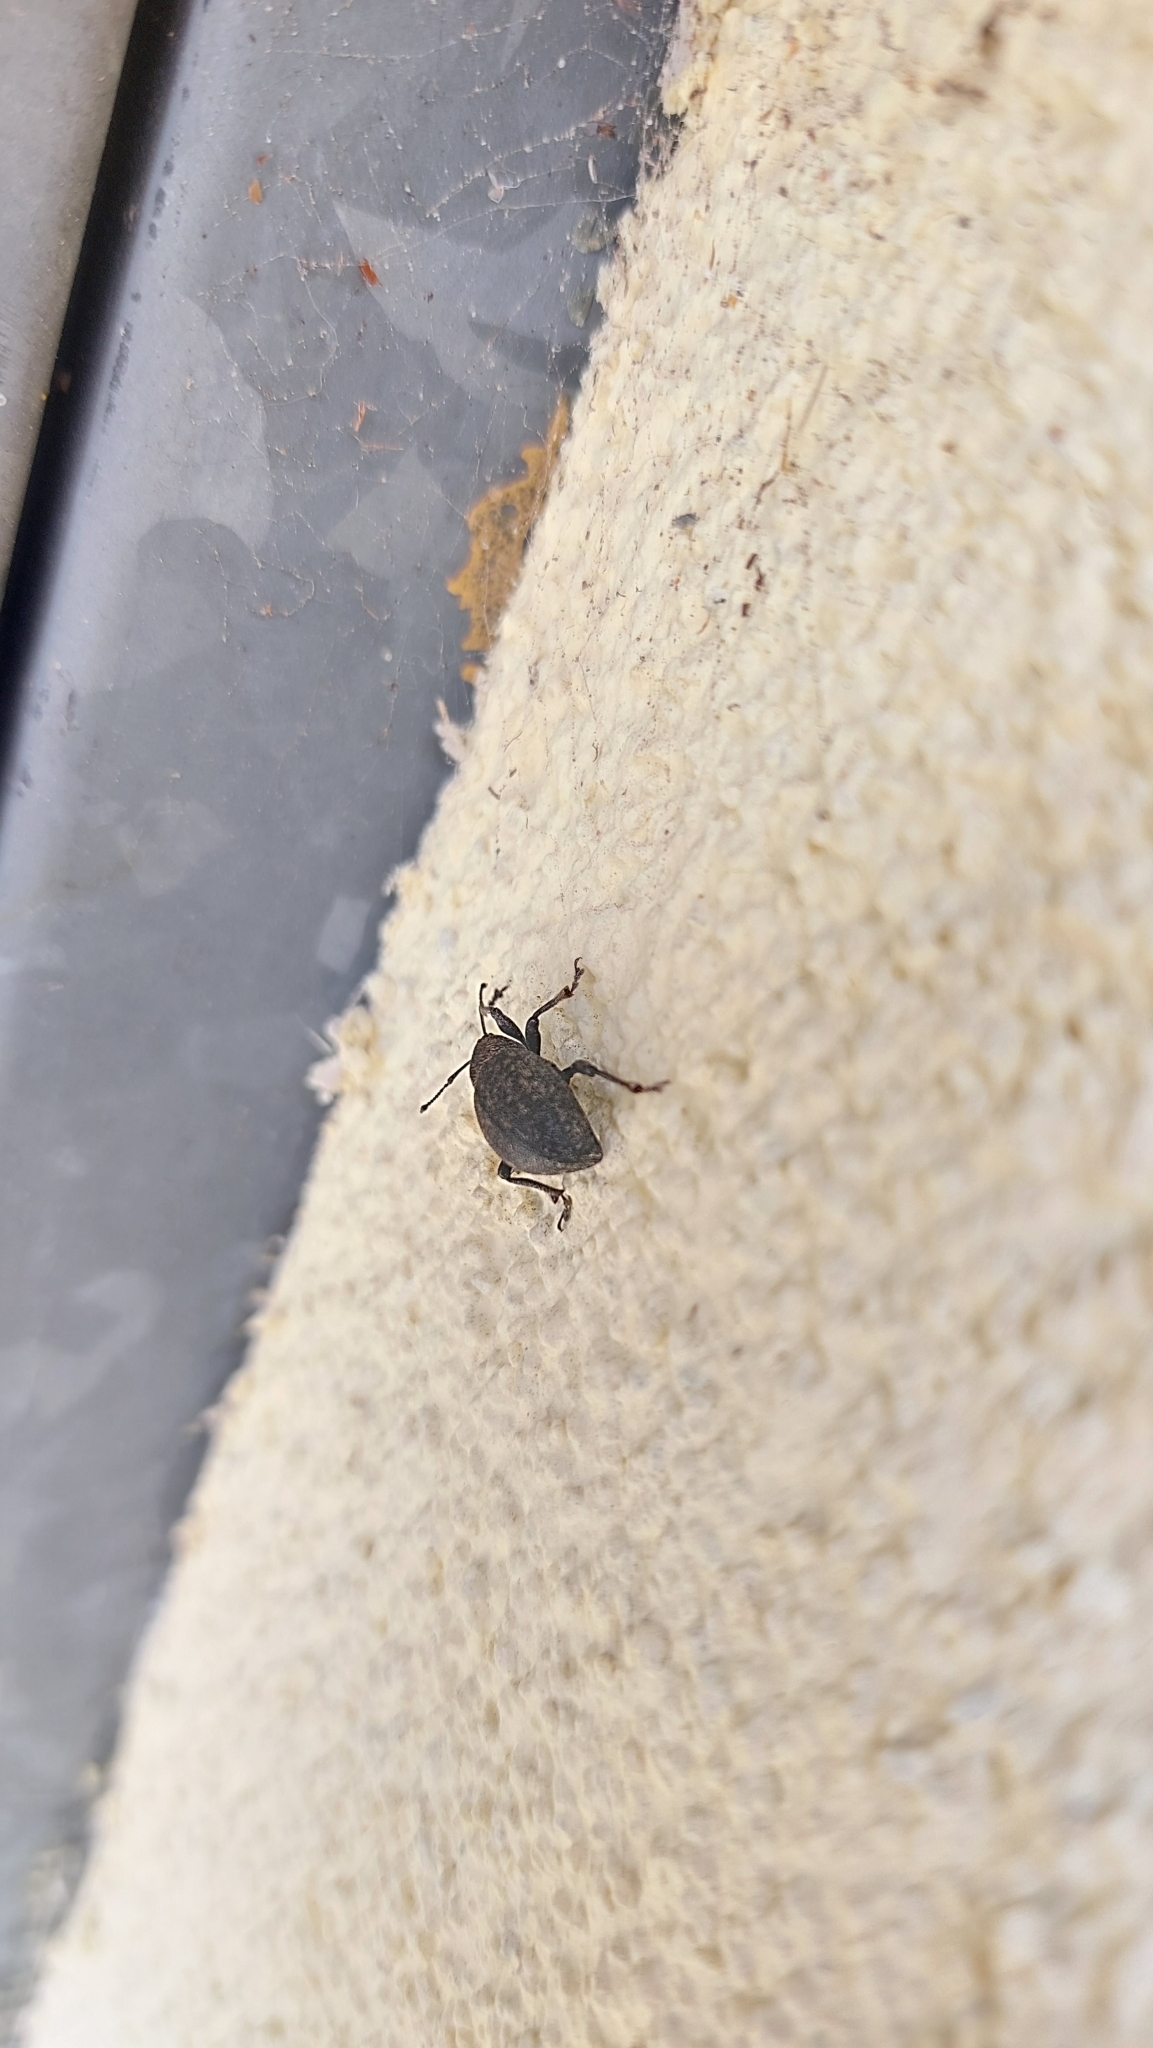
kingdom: Animalia
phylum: Arthropoda
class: Insecta
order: Coleoptera
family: Curculionidae
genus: Otiorhynchus
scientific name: Otiorhynchus ligustici
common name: Weevil
